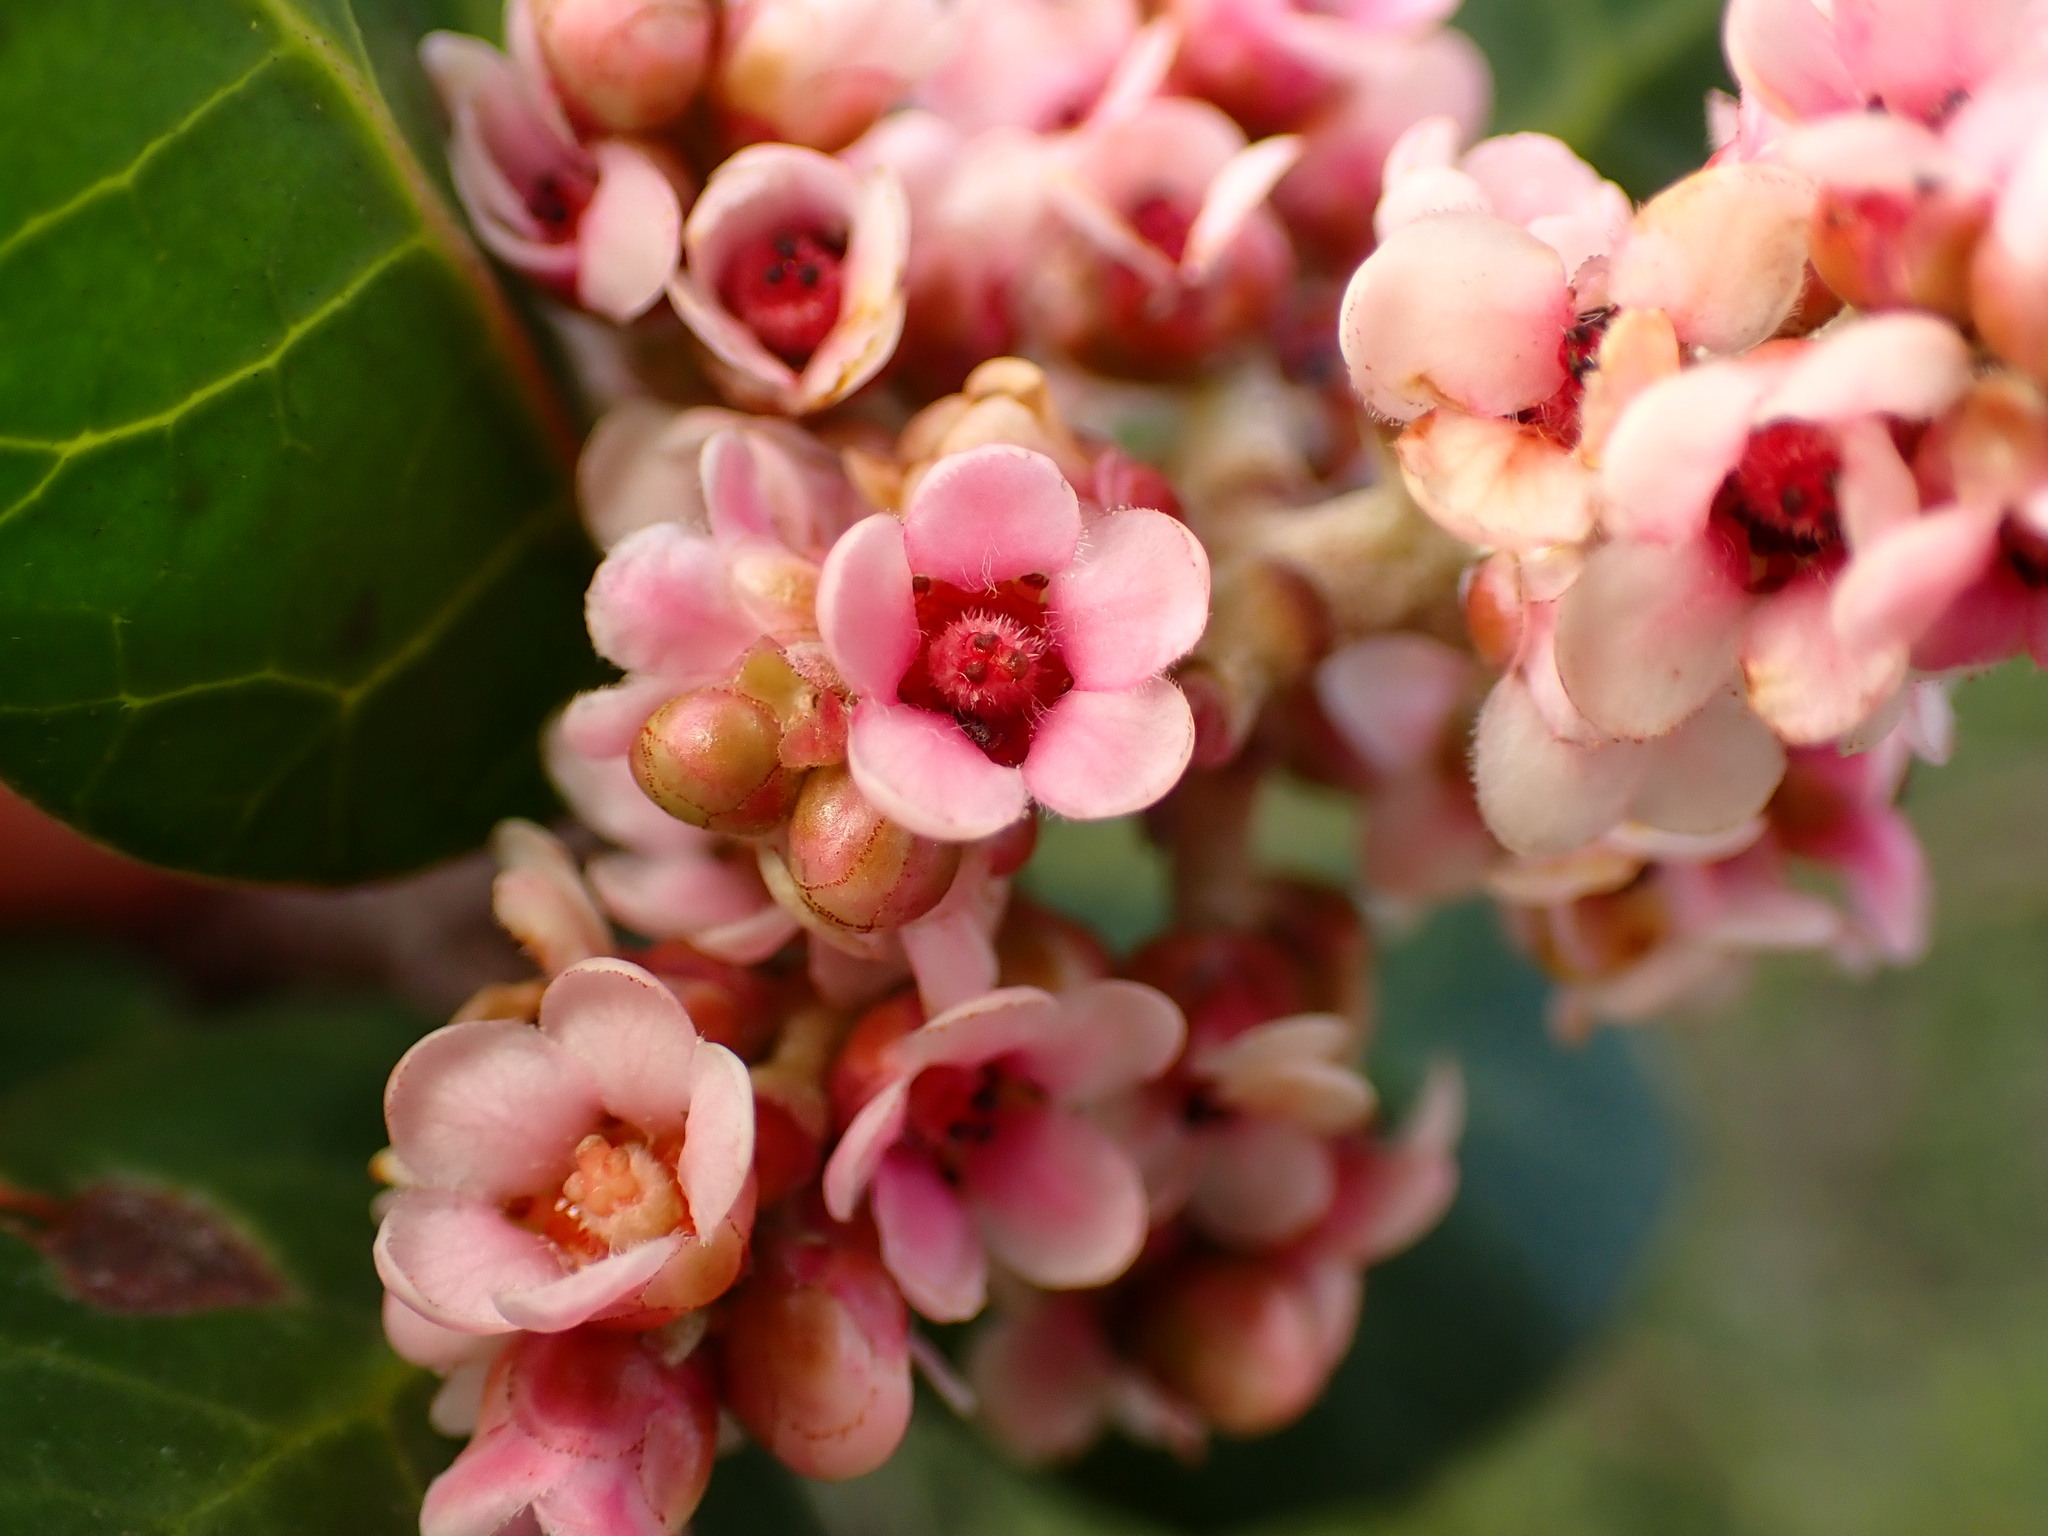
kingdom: Plantae
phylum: Tracheophyta
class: Magnoliopsida
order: Sapindales
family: Anacardiaceae
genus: Rhus
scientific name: Rhus integrifolia
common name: Lemonade sumac
